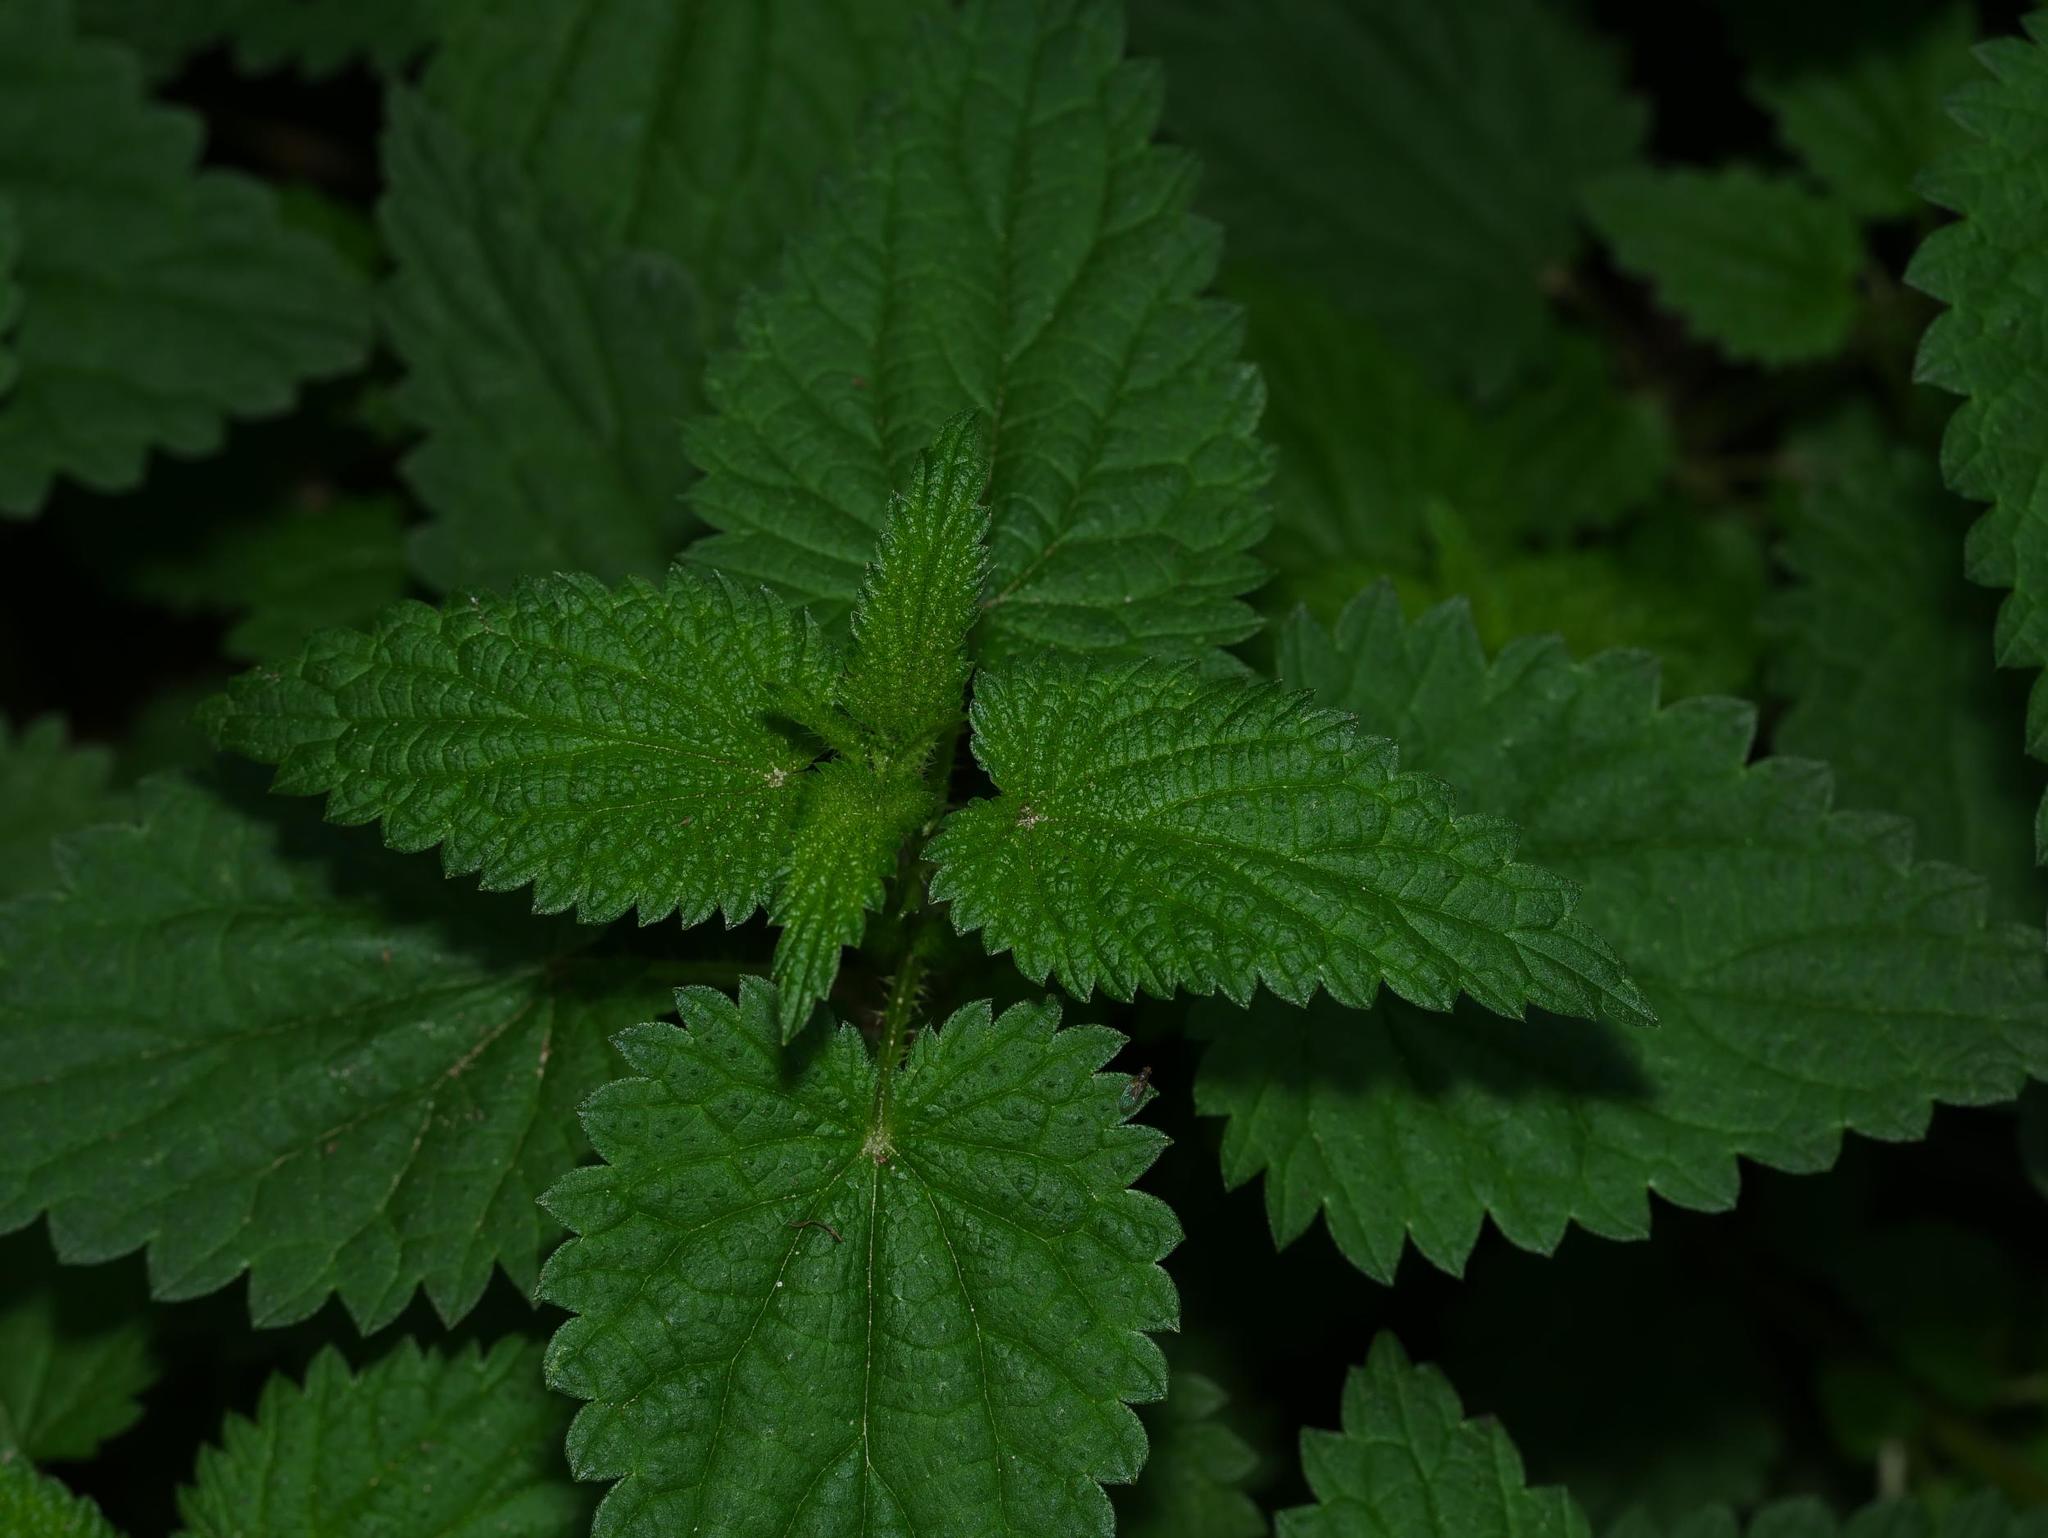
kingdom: Plantae
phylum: Tracheophyta
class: Magnoliopsida
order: Rosales
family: Urticaceae
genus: Urtica
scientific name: Urtica dioica
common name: Common nettle
